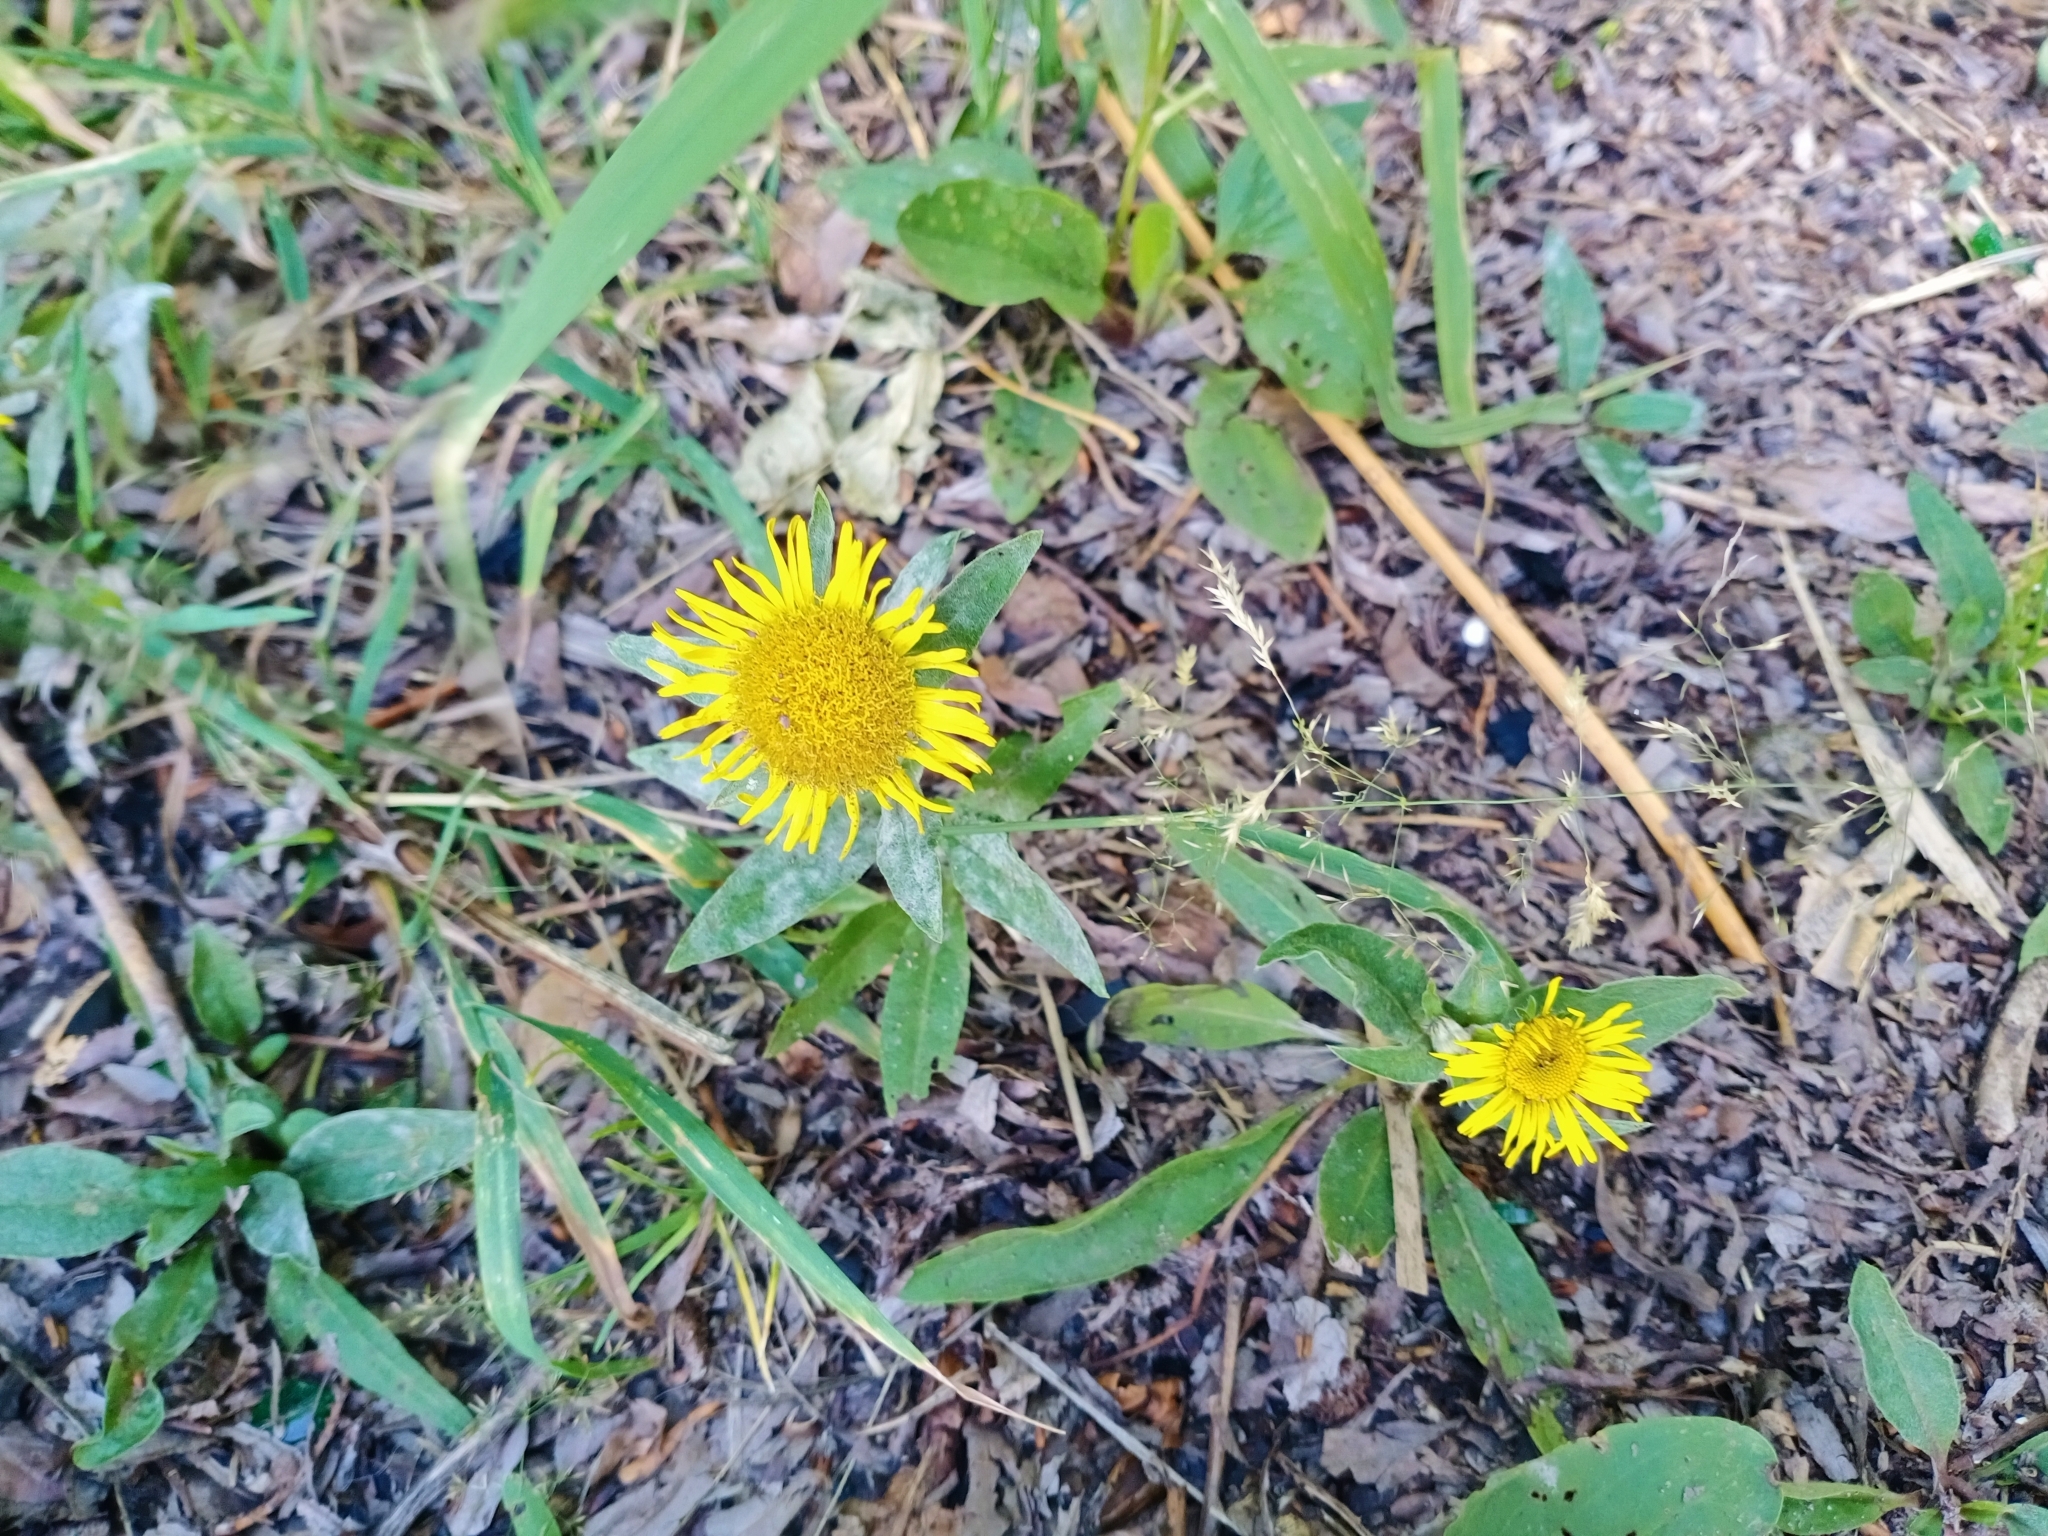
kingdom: Plantae
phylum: Tracheophyta
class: Magnoliopsida
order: Asterales
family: Asteraceae
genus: Pentanema
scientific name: Pentanema britannicum
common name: British elecampane
